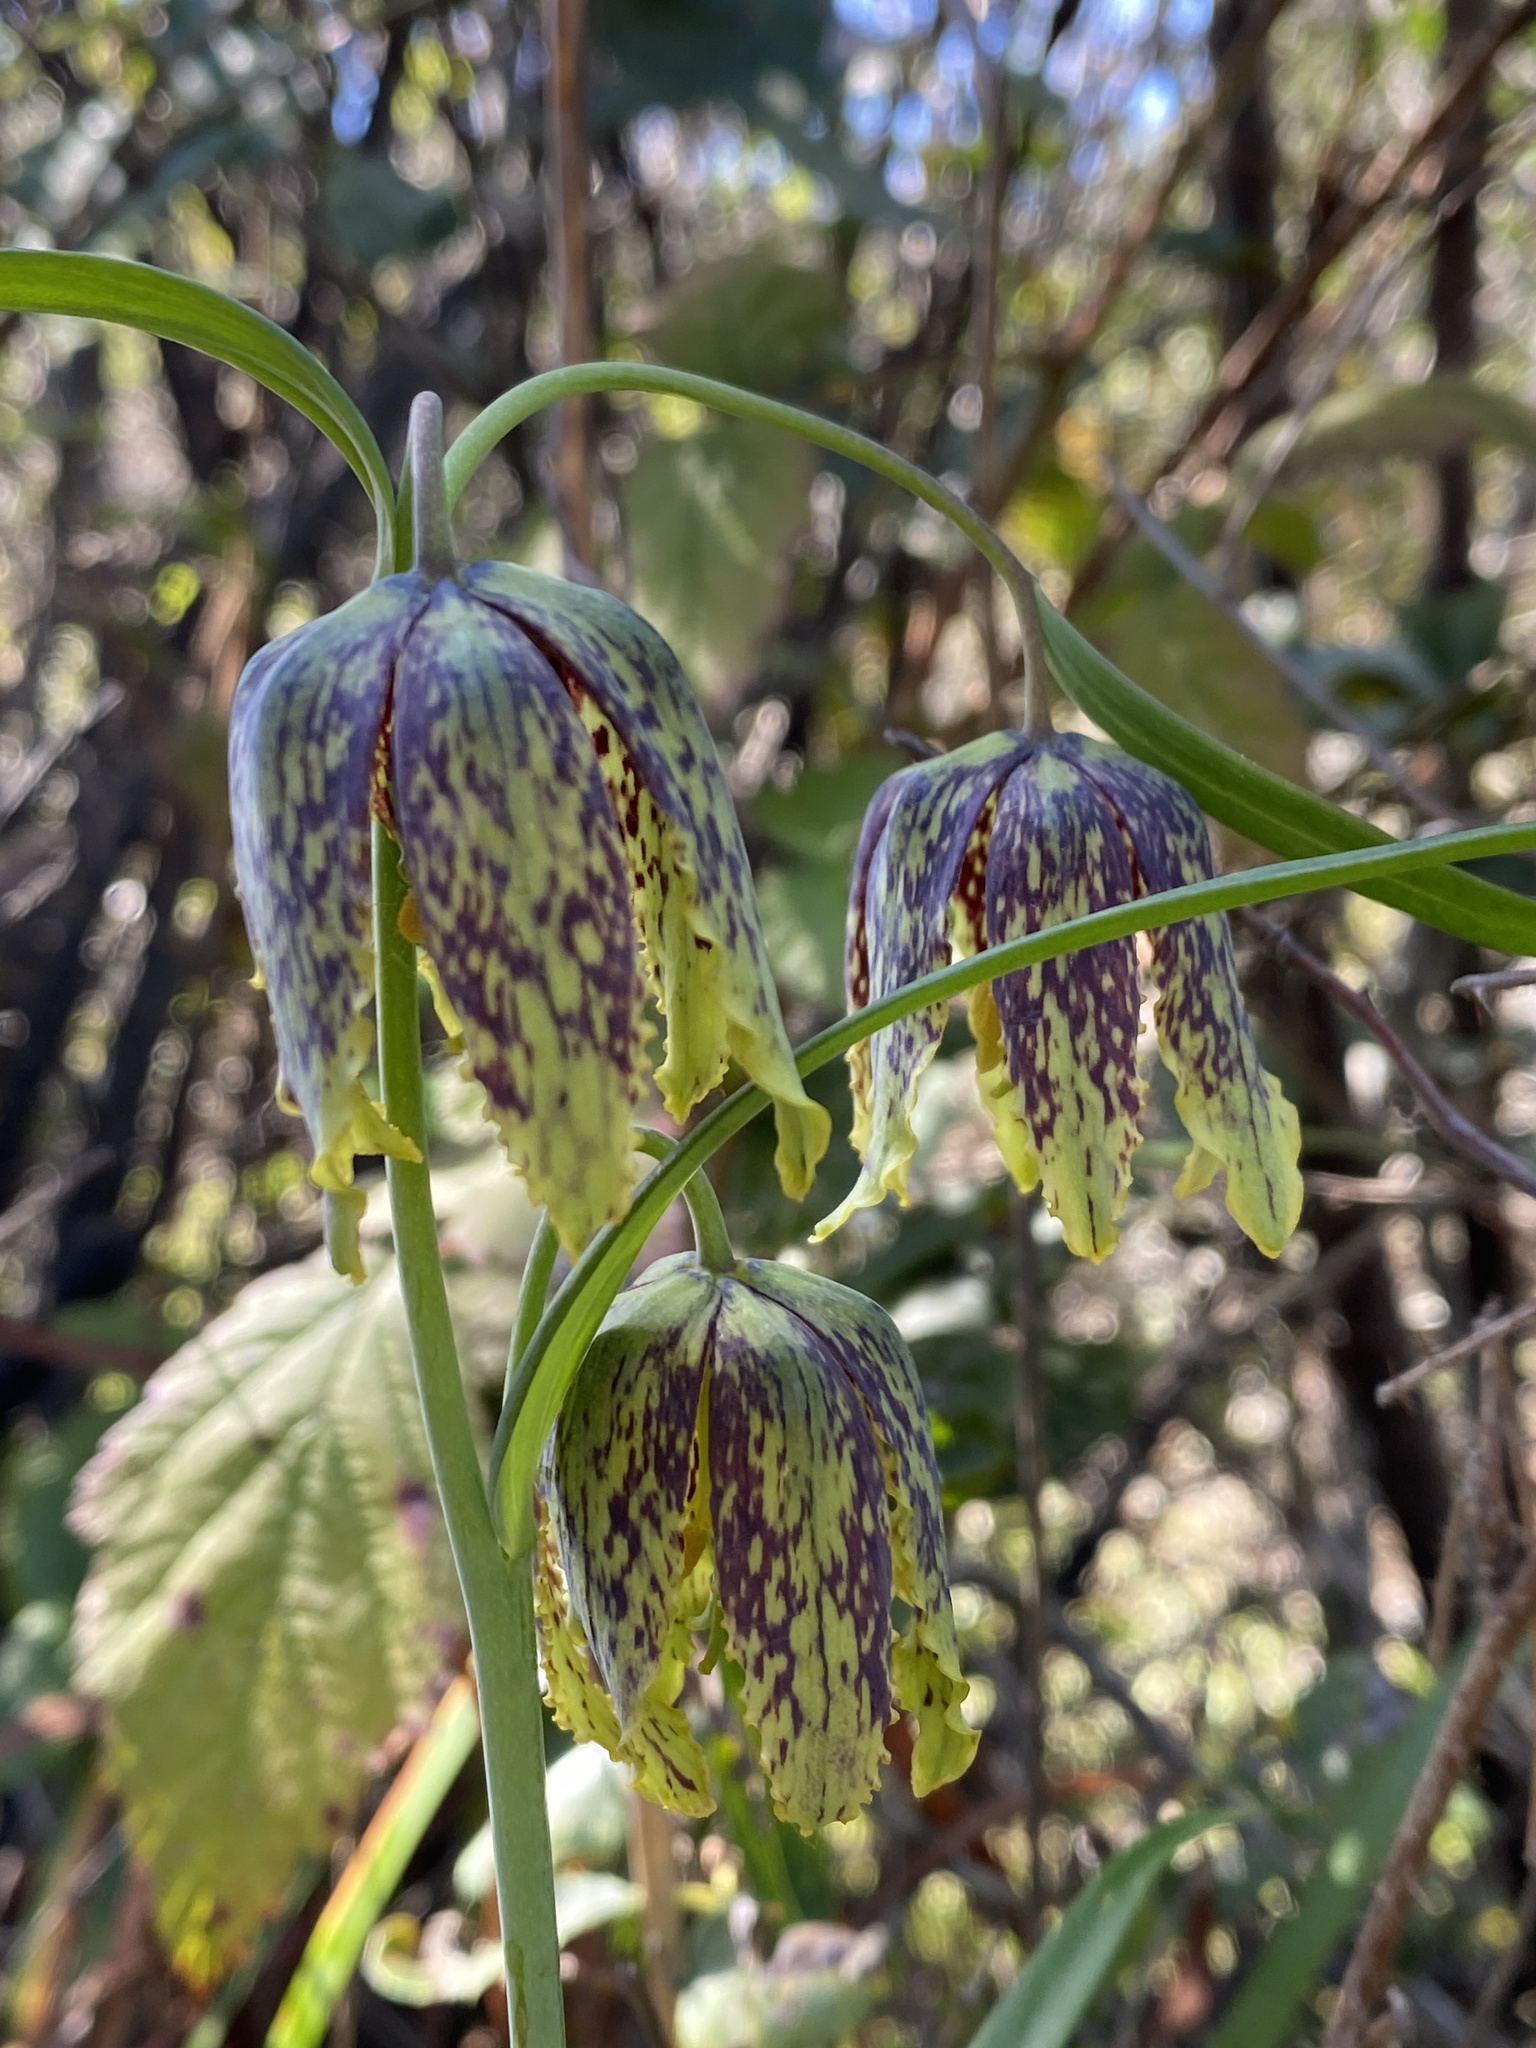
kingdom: Plantae
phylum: Tracheophyta
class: Liliopsida
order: Liliales
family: Liliaceae
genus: Fritillaria
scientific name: Fritillaria affinis
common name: Ojai fritillary
